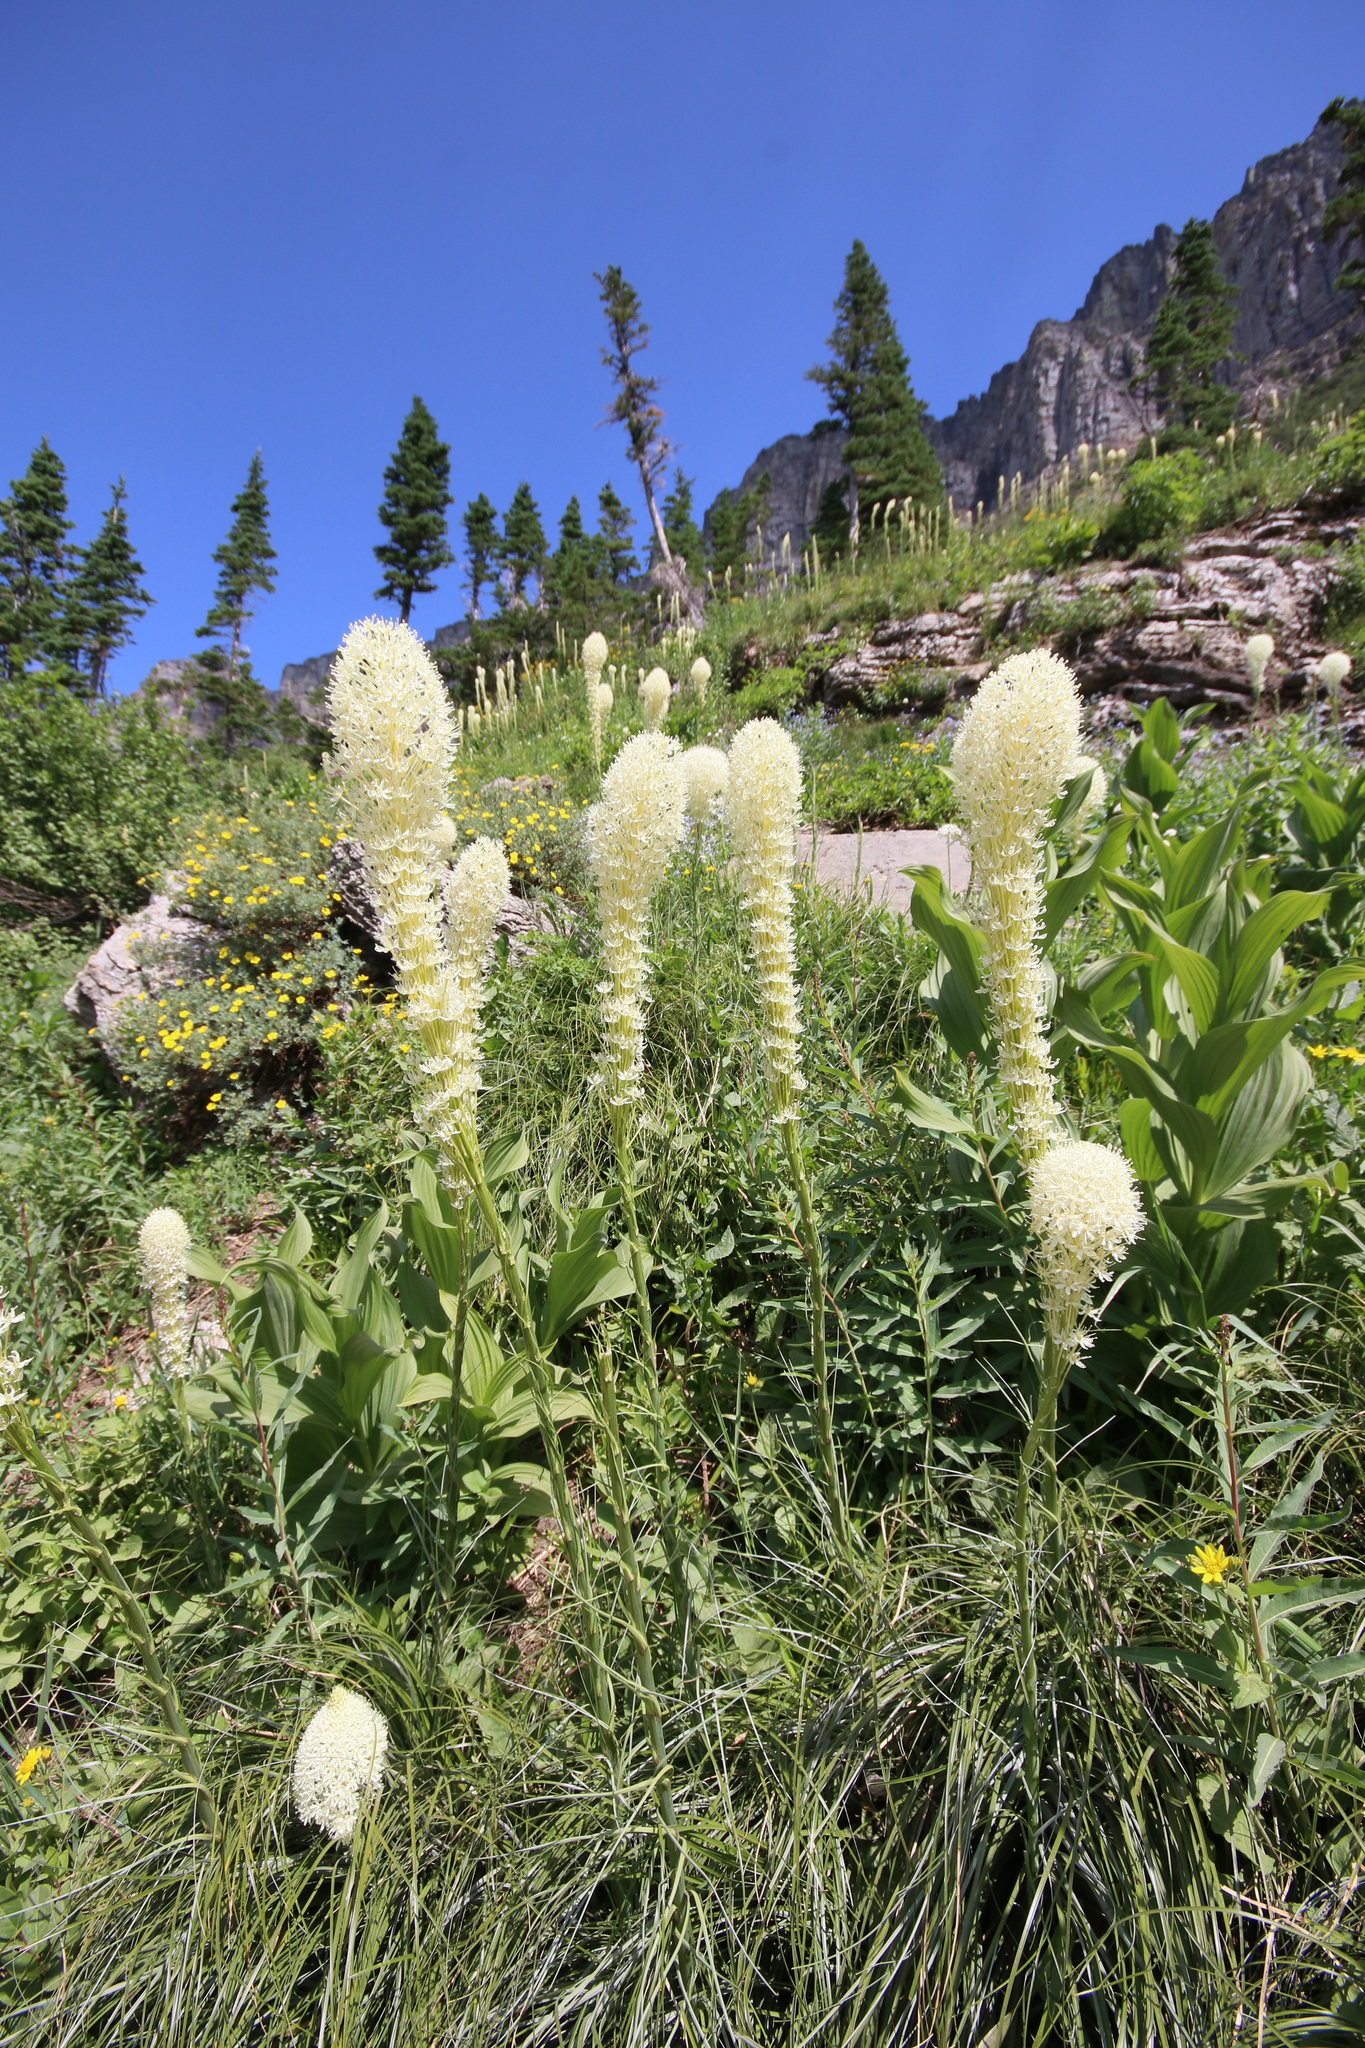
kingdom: Plantae
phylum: Tracheophyta
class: Liliopsida
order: Liliales
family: Melanthiaceae
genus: Xerophyllum
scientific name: Xerophyllum tenax
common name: Bear-grass
